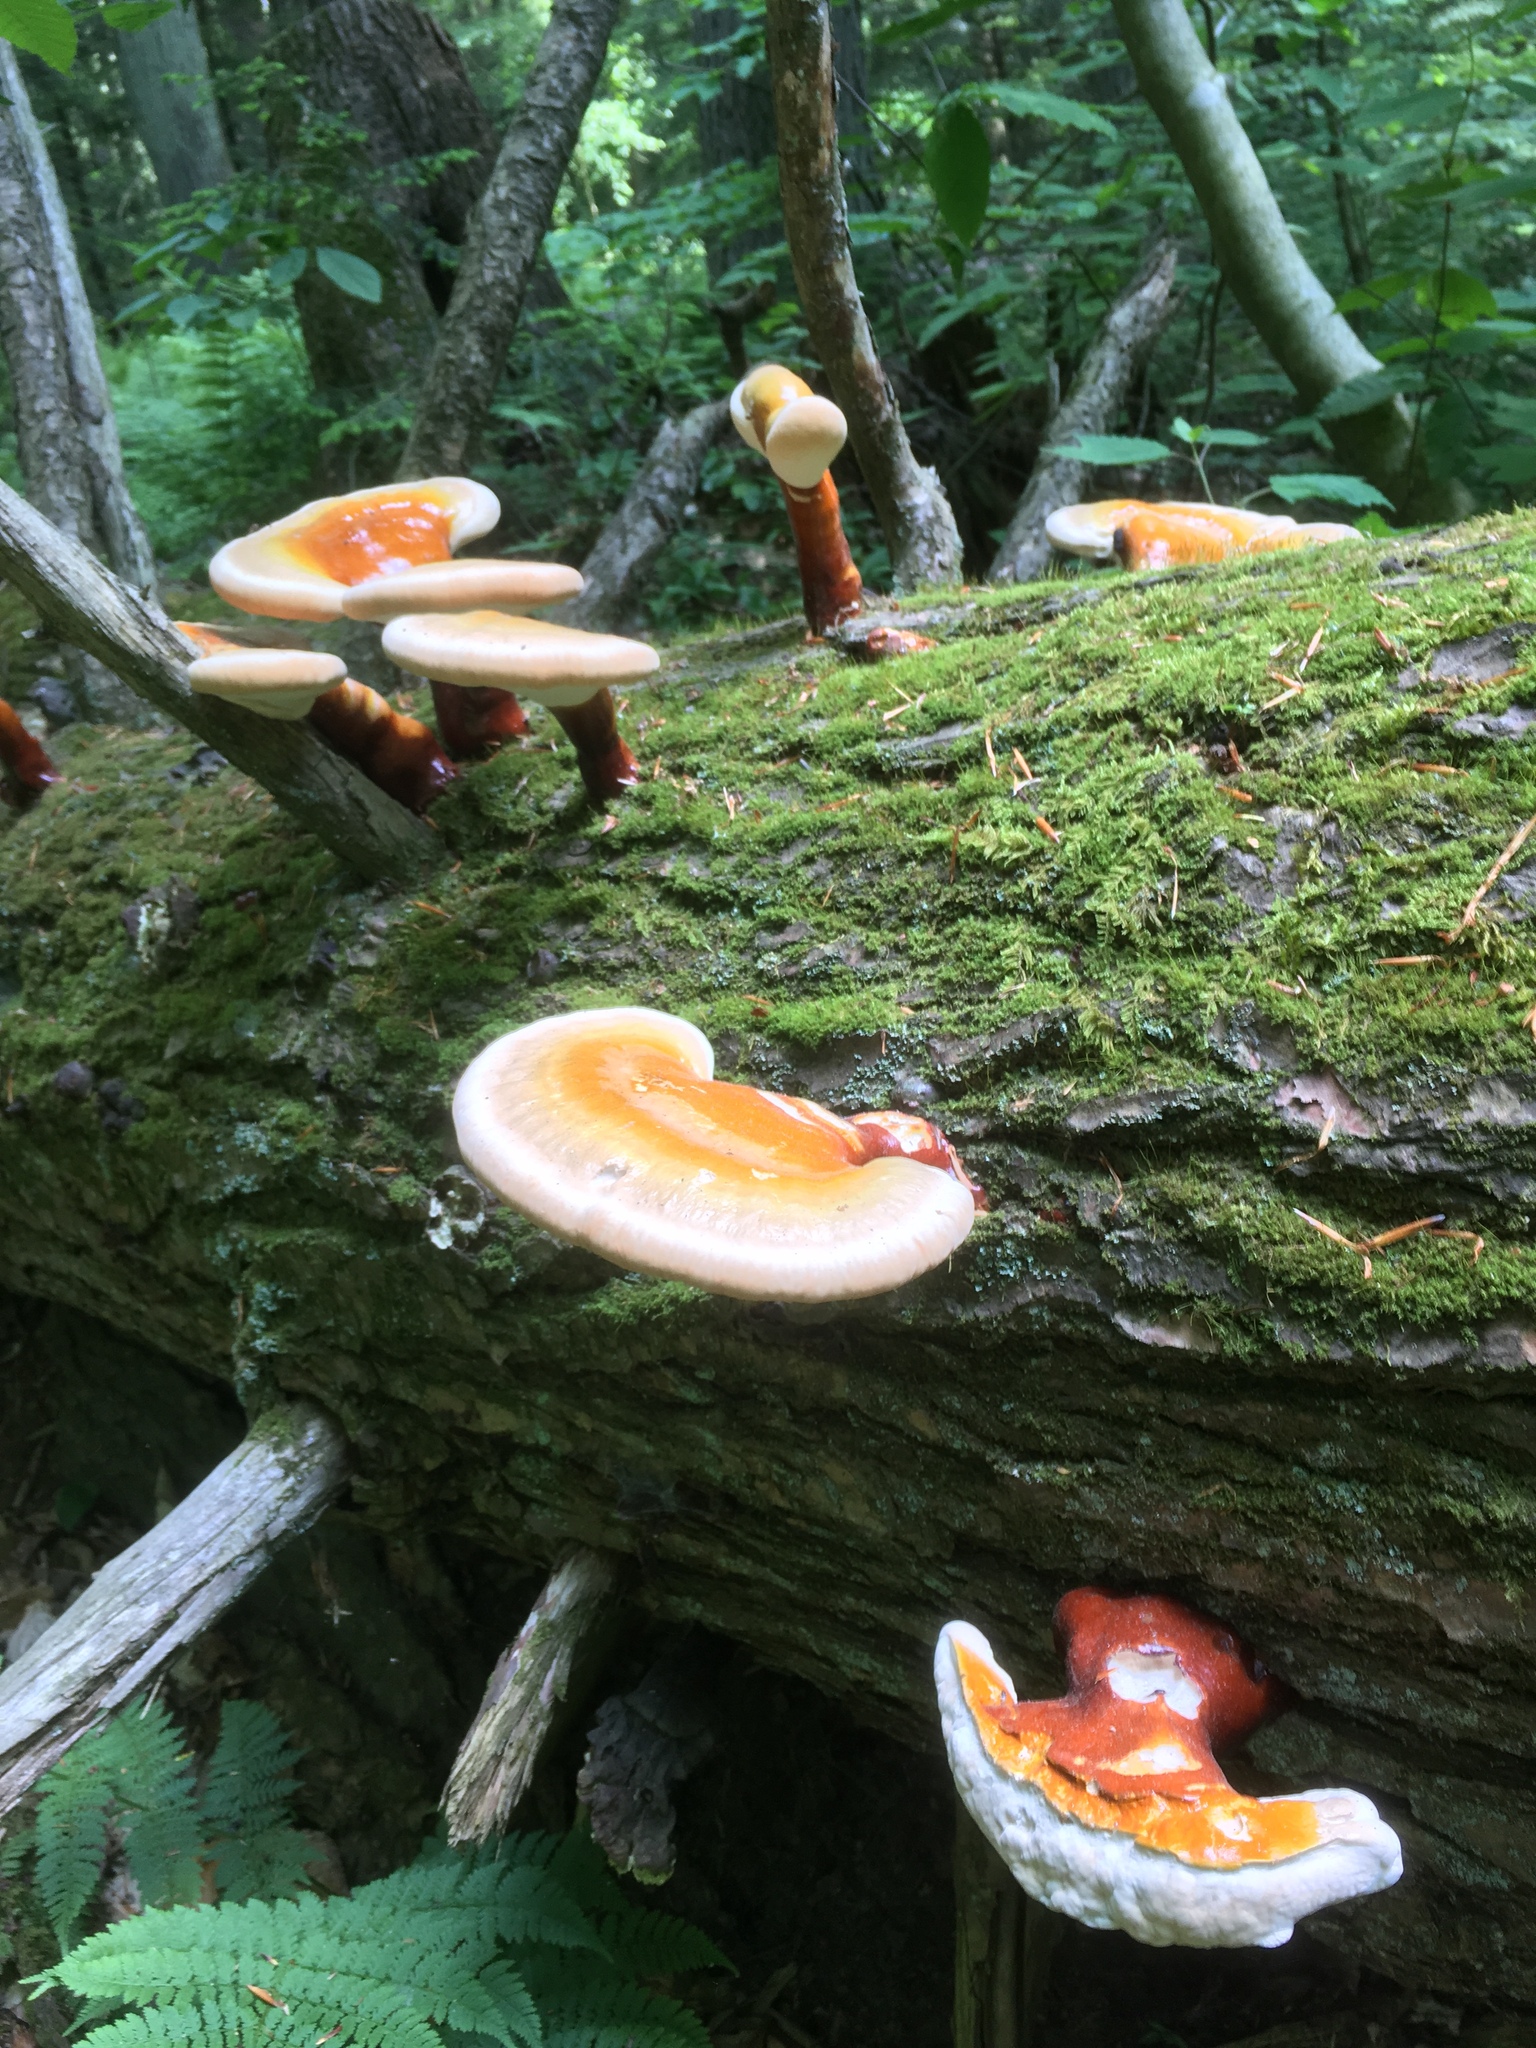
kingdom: Fungi
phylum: Basidiomycota
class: Agaricomycetes
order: Polyporales
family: Polyporaceae
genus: Ganoderma
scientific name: Ganoderma tsugae
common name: Hemlock varnish shelf
